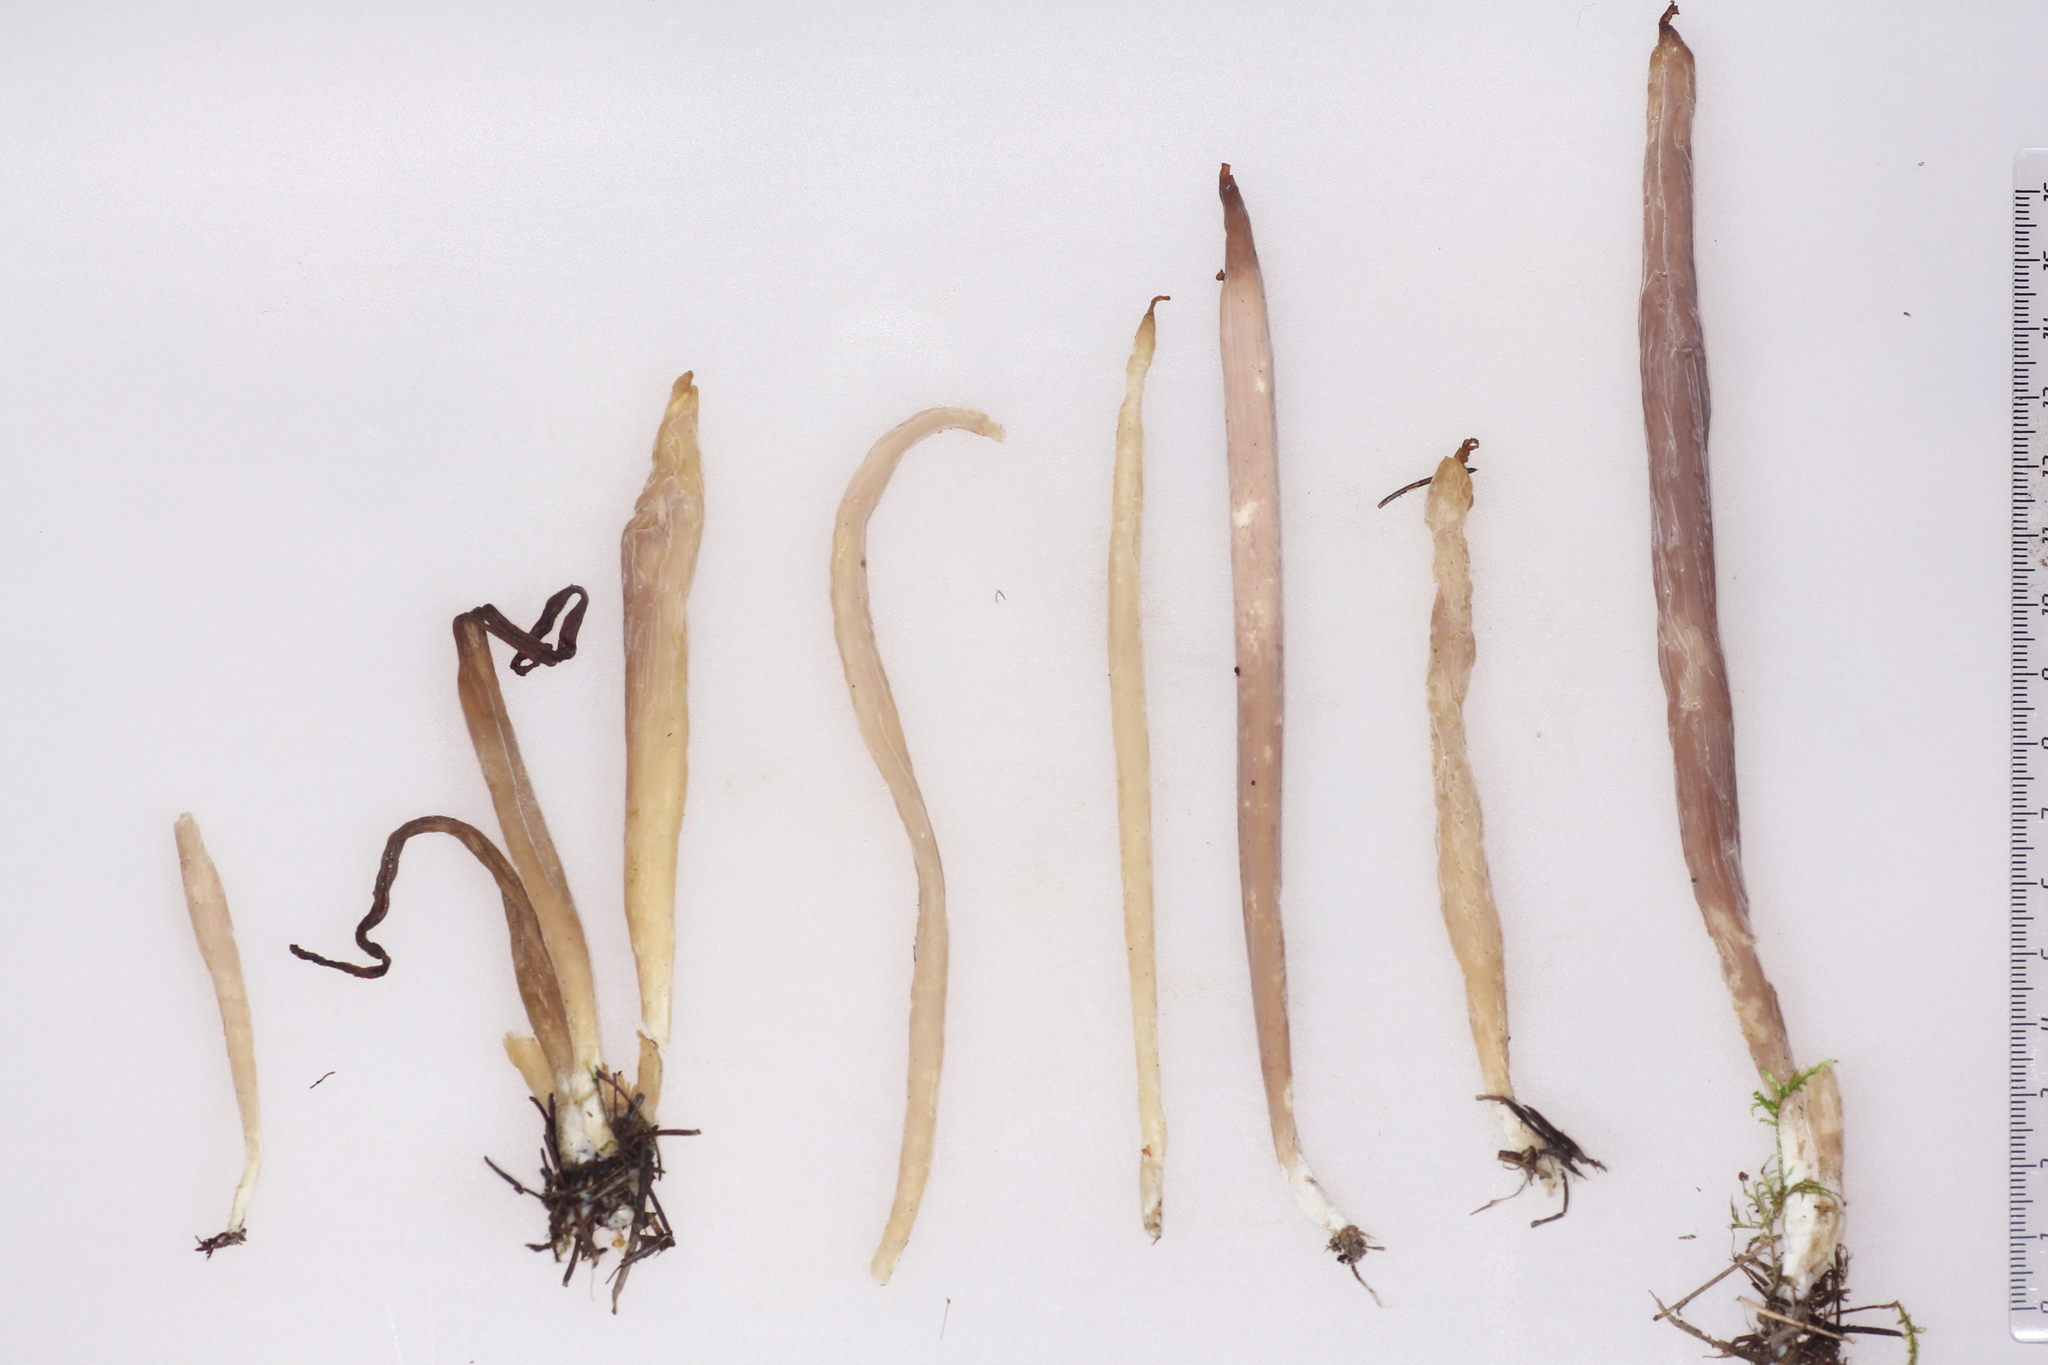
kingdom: Fungi
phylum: Basidiomycota
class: Agaricomycetes
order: Hymenochaetales
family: Rickenellaceae
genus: Alloclavaria
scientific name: Alloclavaria purpurea
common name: Purple spindles
